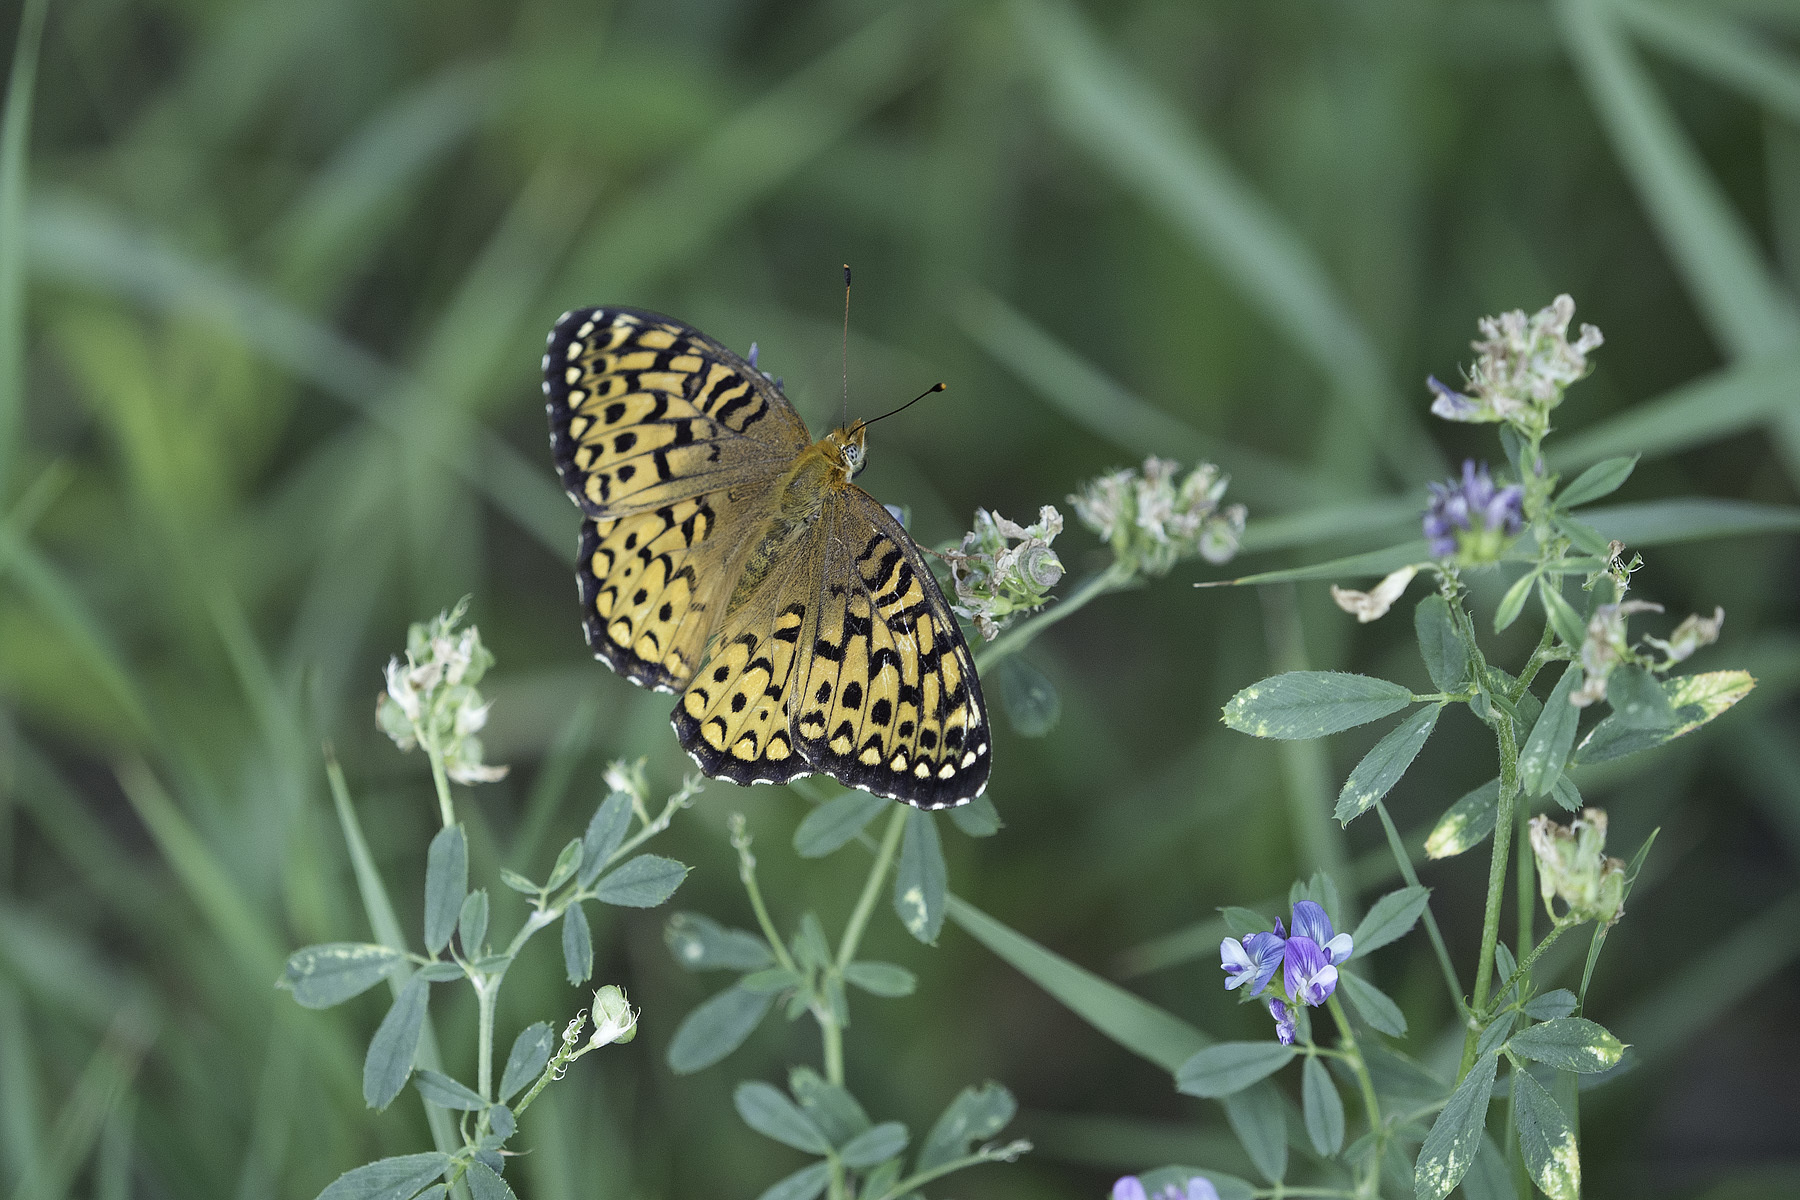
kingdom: Animalia
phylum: Arthropoda
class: Insecta
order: Lepidoptera
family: Nymphalidae
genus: Speyeria
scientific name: Speyeria atlantis
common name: Atlantis fritillary
